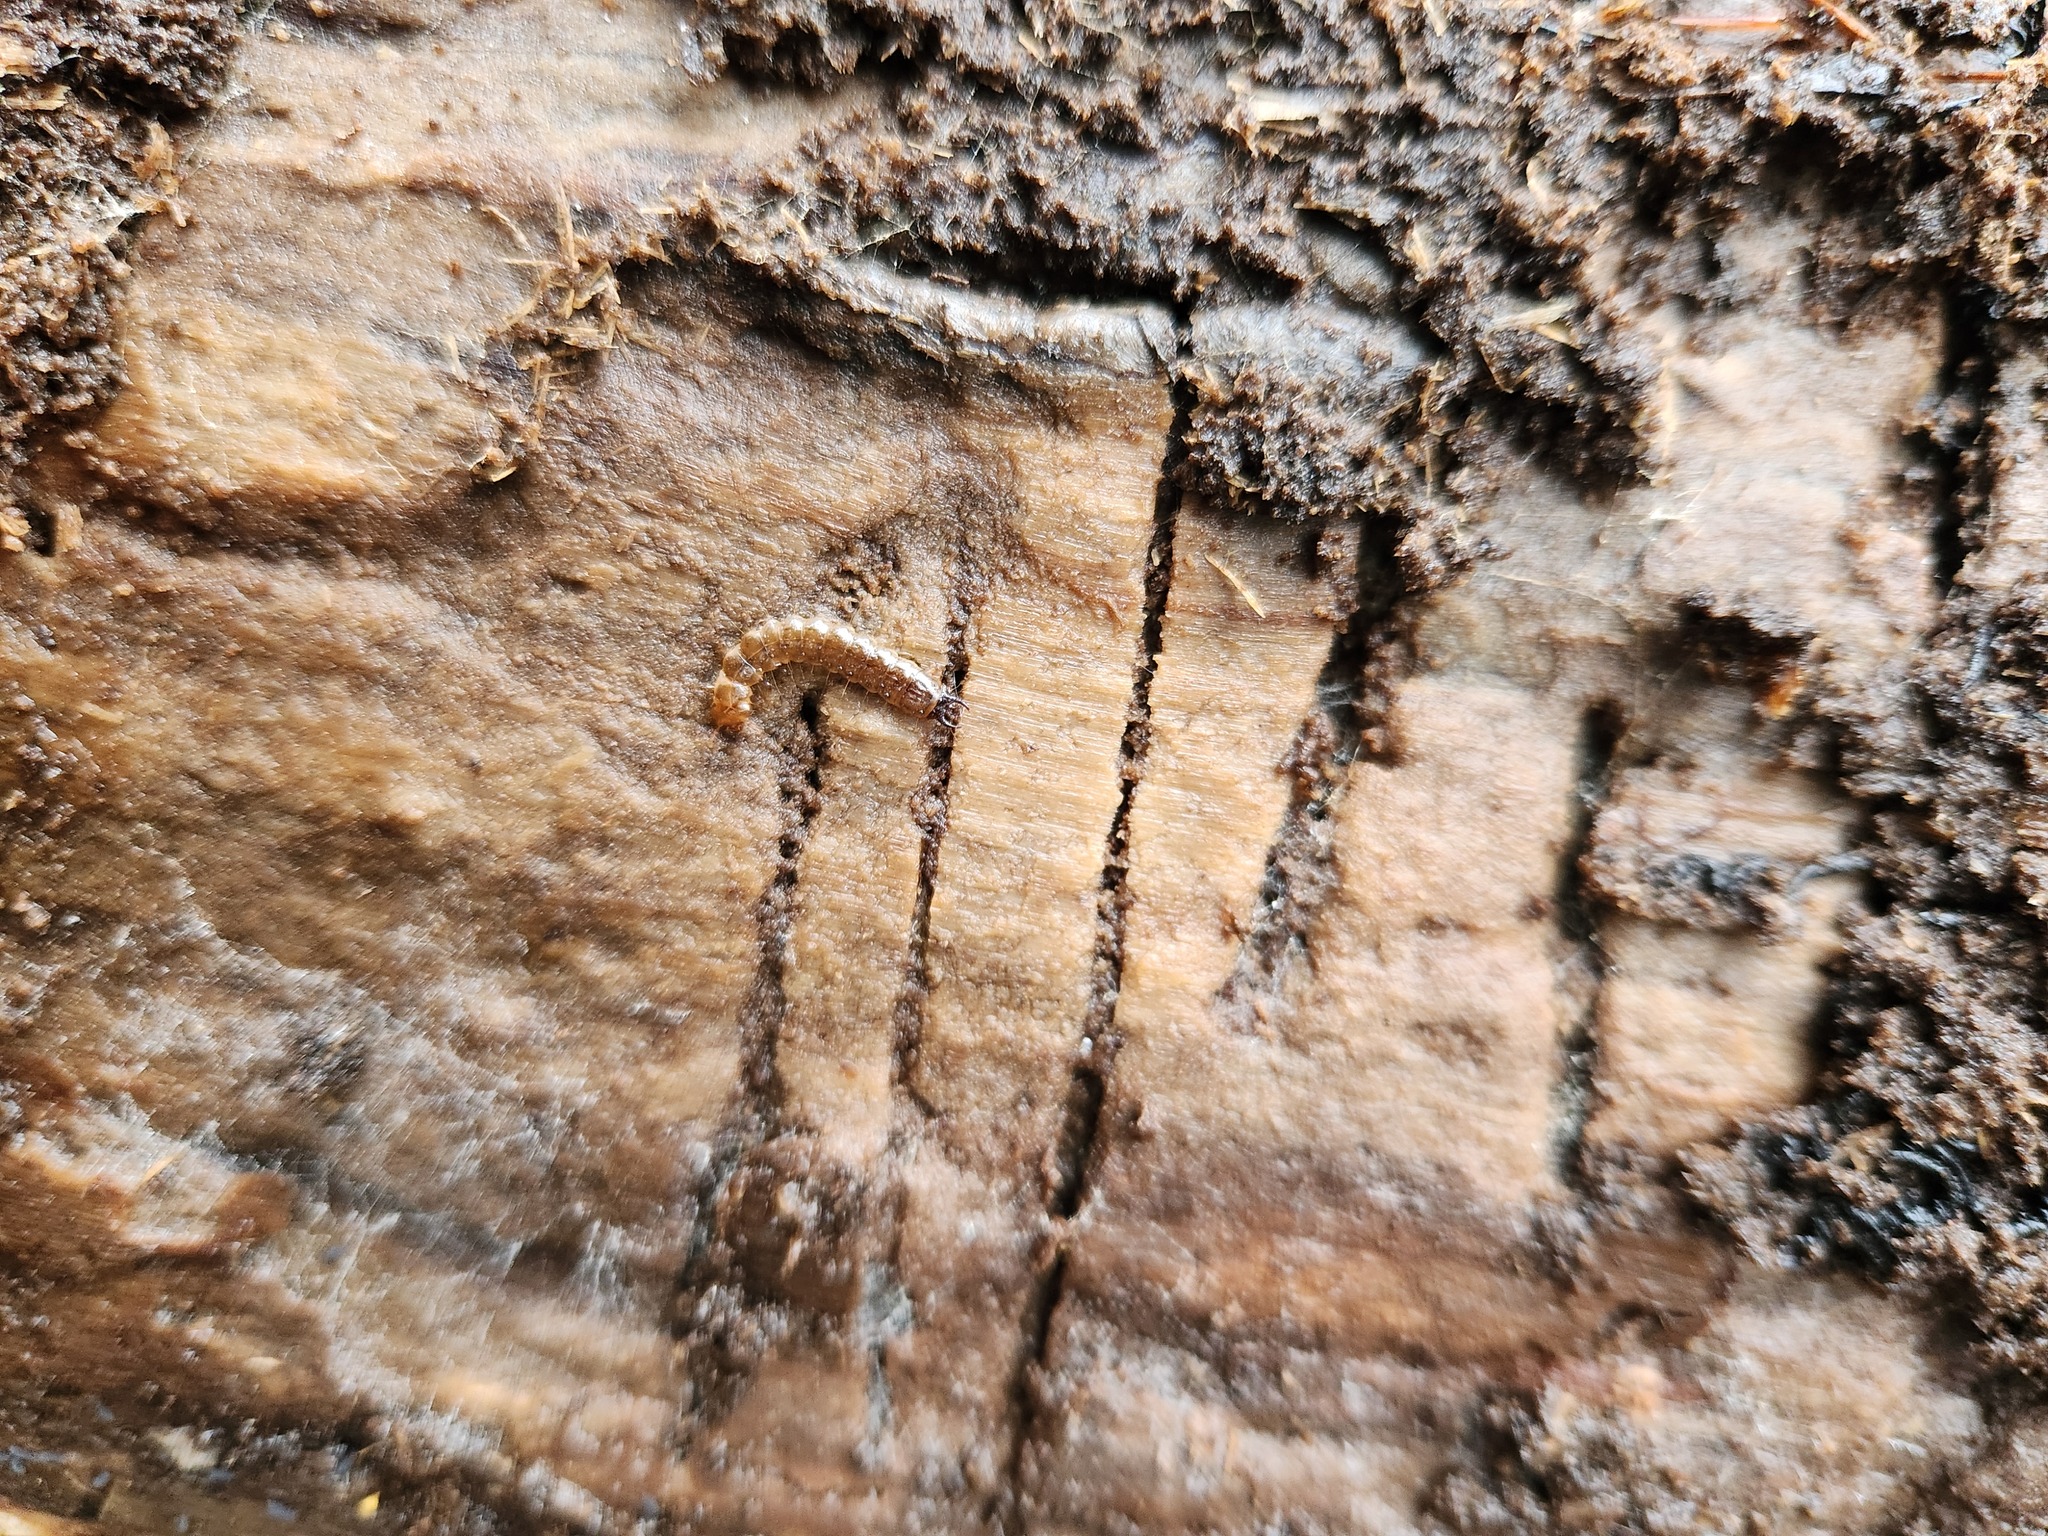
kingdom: Animalia
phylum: Arthropoda
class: Insecta
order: Coleoptera
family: Cucujidae
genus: Cucujus
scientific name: Cucujus clavipes
